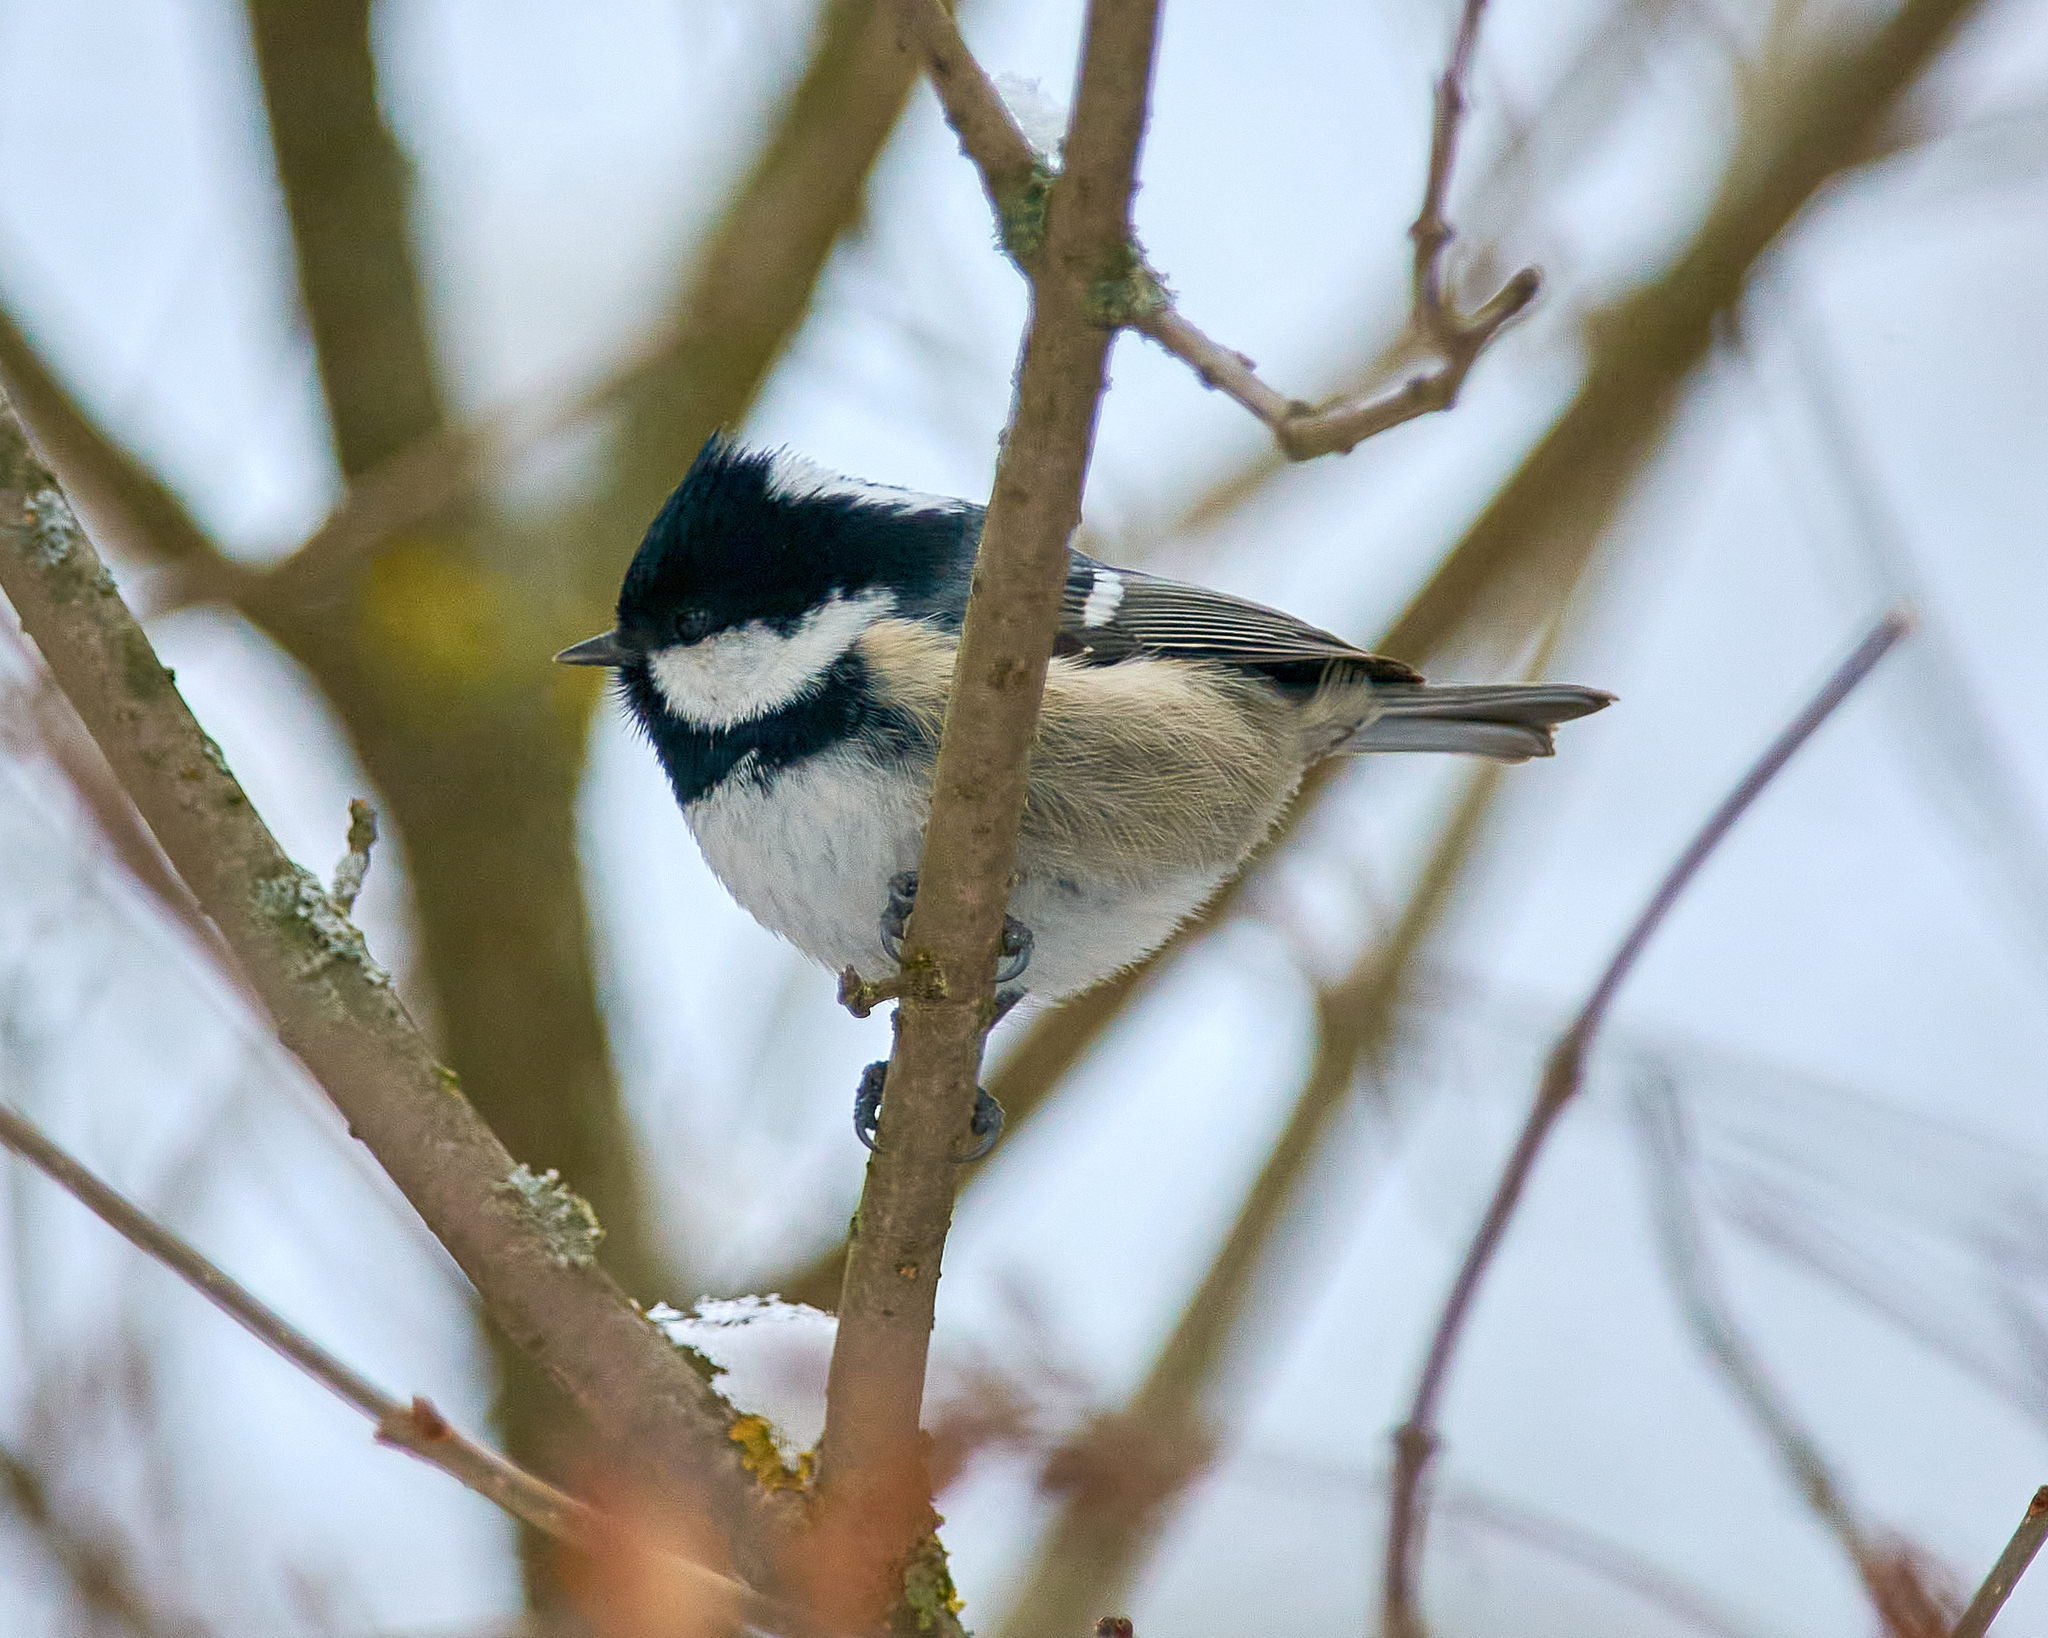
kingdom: Animalia
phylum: Chordata
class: Aves
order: Passeriformes
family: Paridae
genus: Periparus
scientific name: Periparus ater
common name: Coal tit
